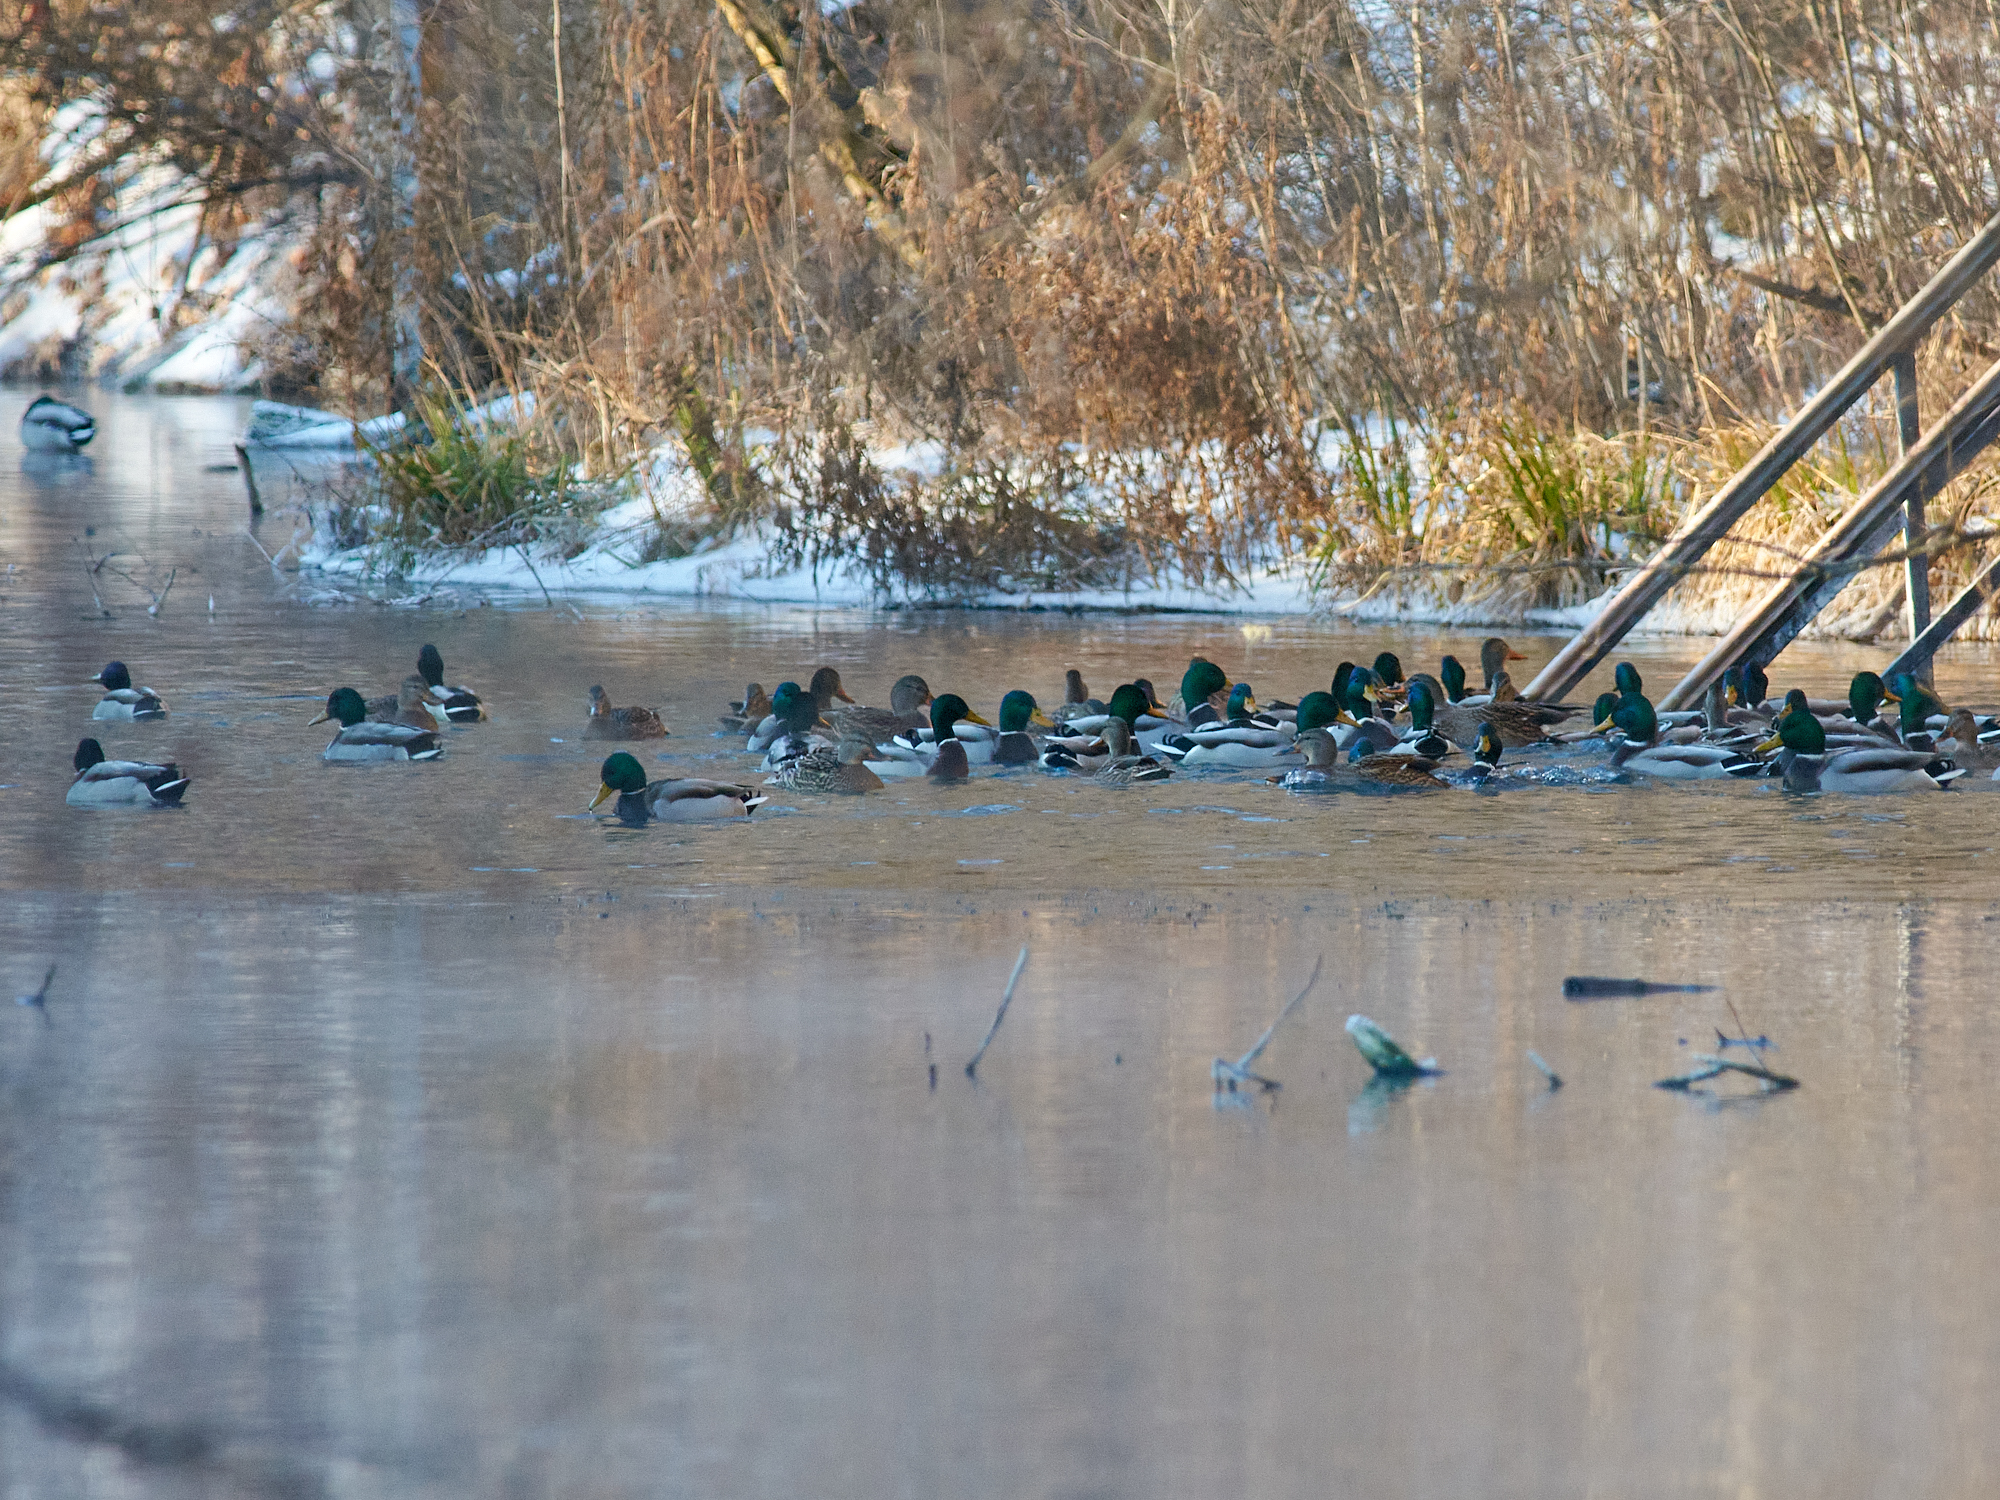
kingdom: Animalia
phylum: Chordata
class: Aves
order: Anseriformes
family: Anatidae
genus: Anas
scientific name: Anas platyrhynchos
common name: Mallard
